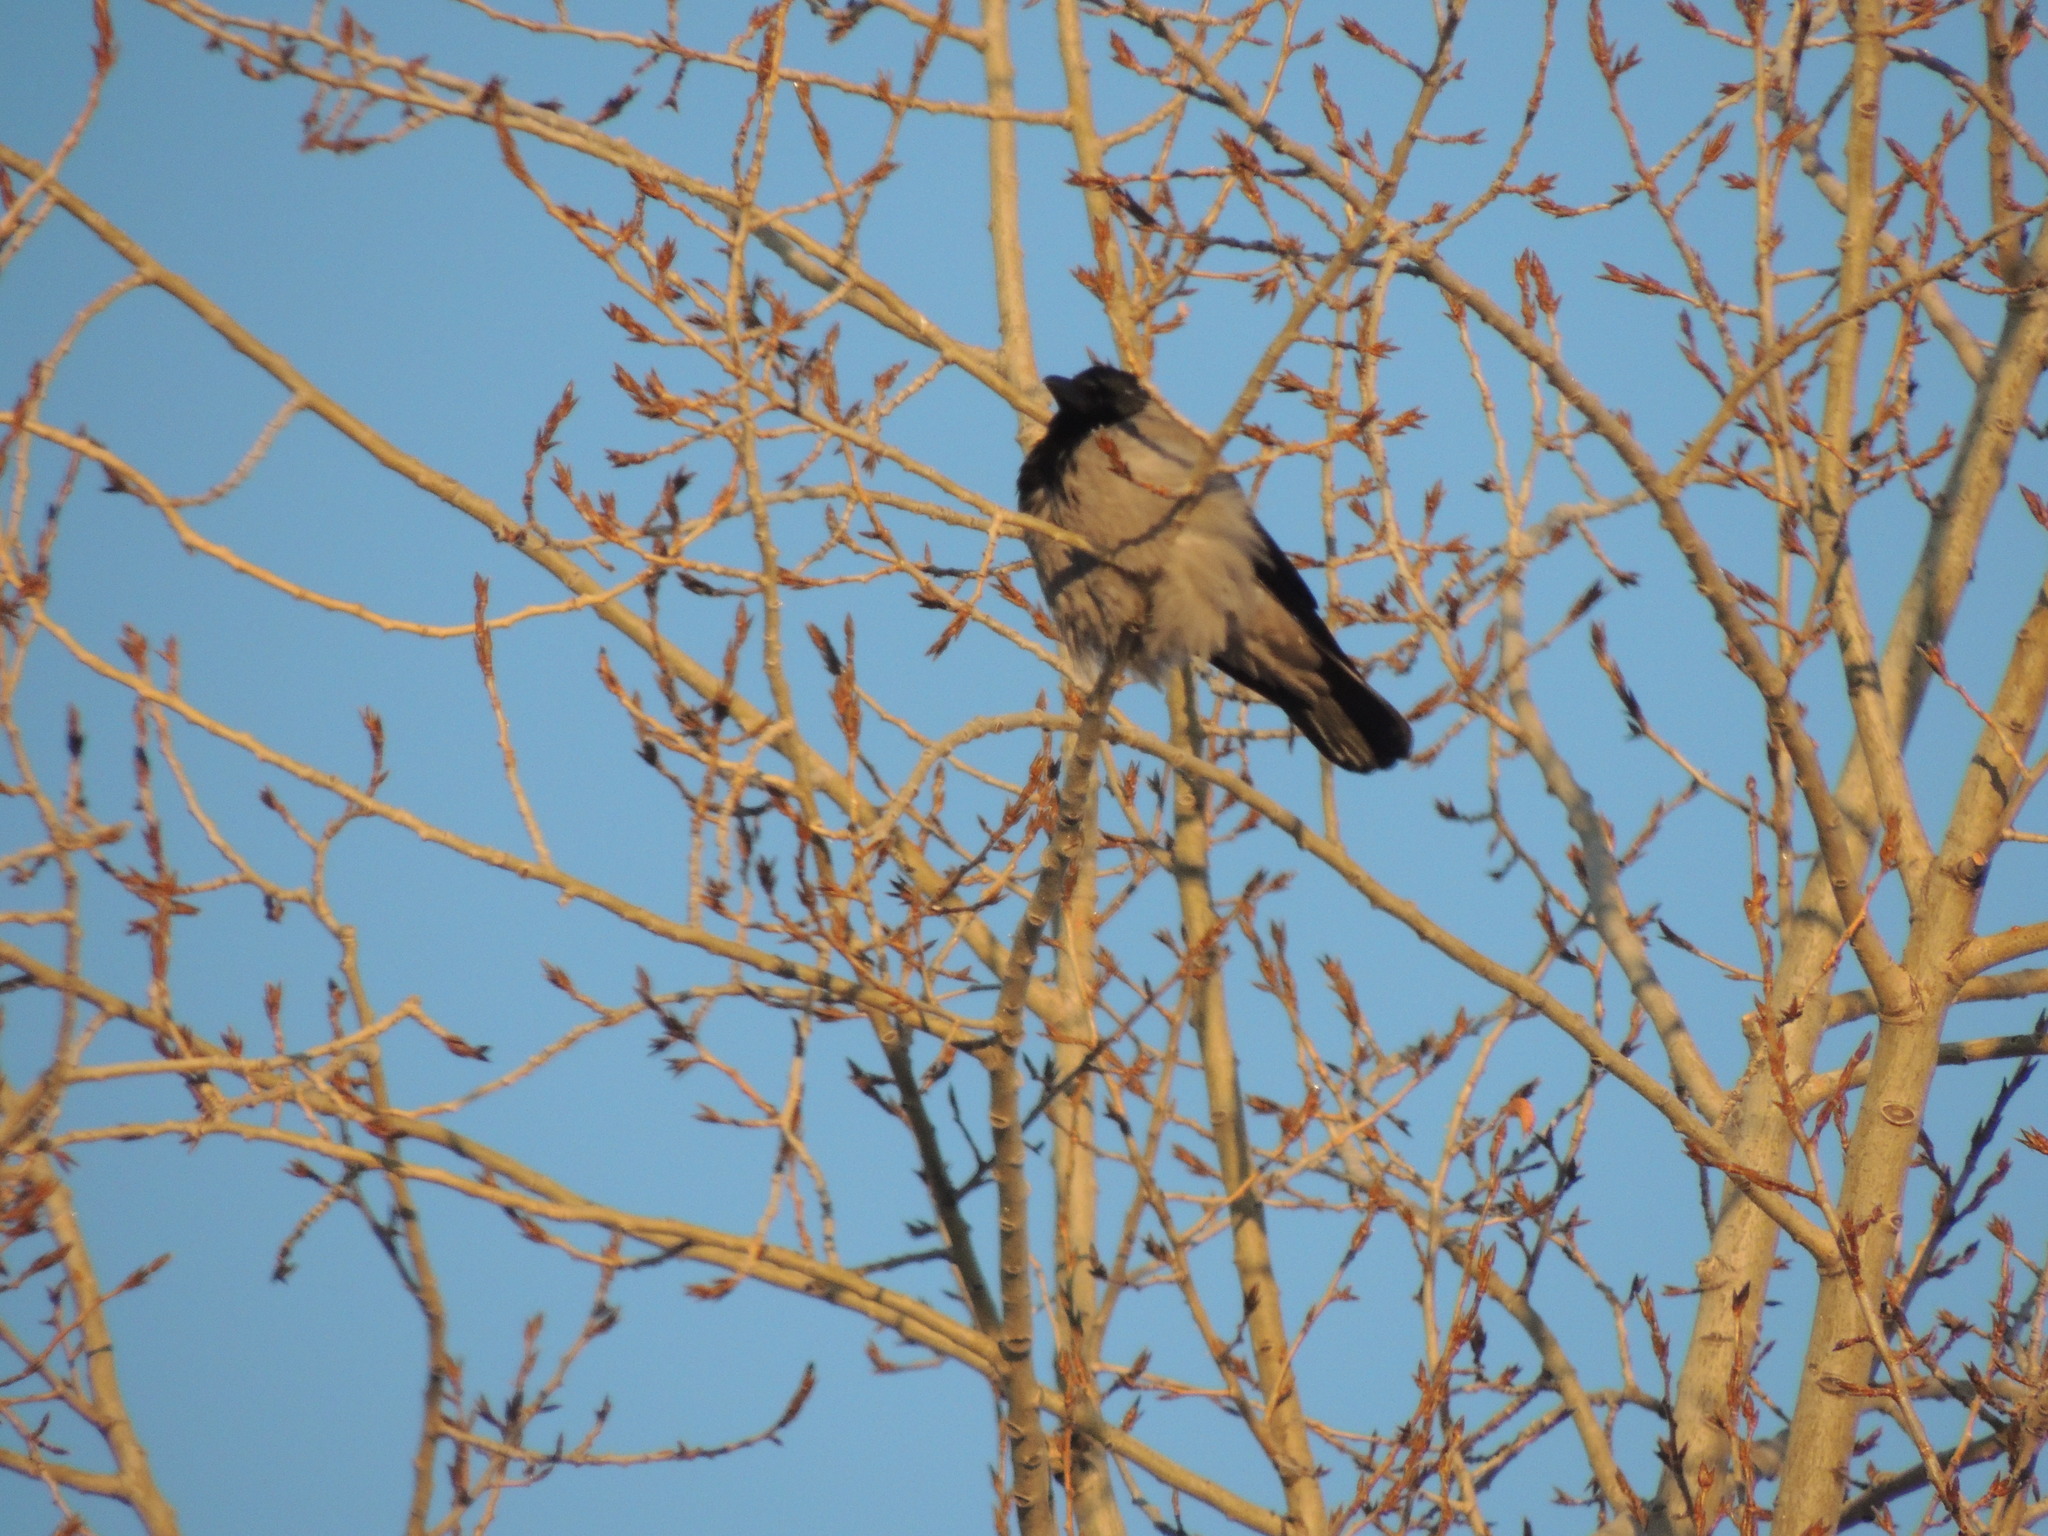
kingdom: Animalia
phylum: Chordata
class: Aves
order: Passeriformes
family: Corvidae
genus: Corvus
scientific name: Corvus cornix
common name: Hooded crow
